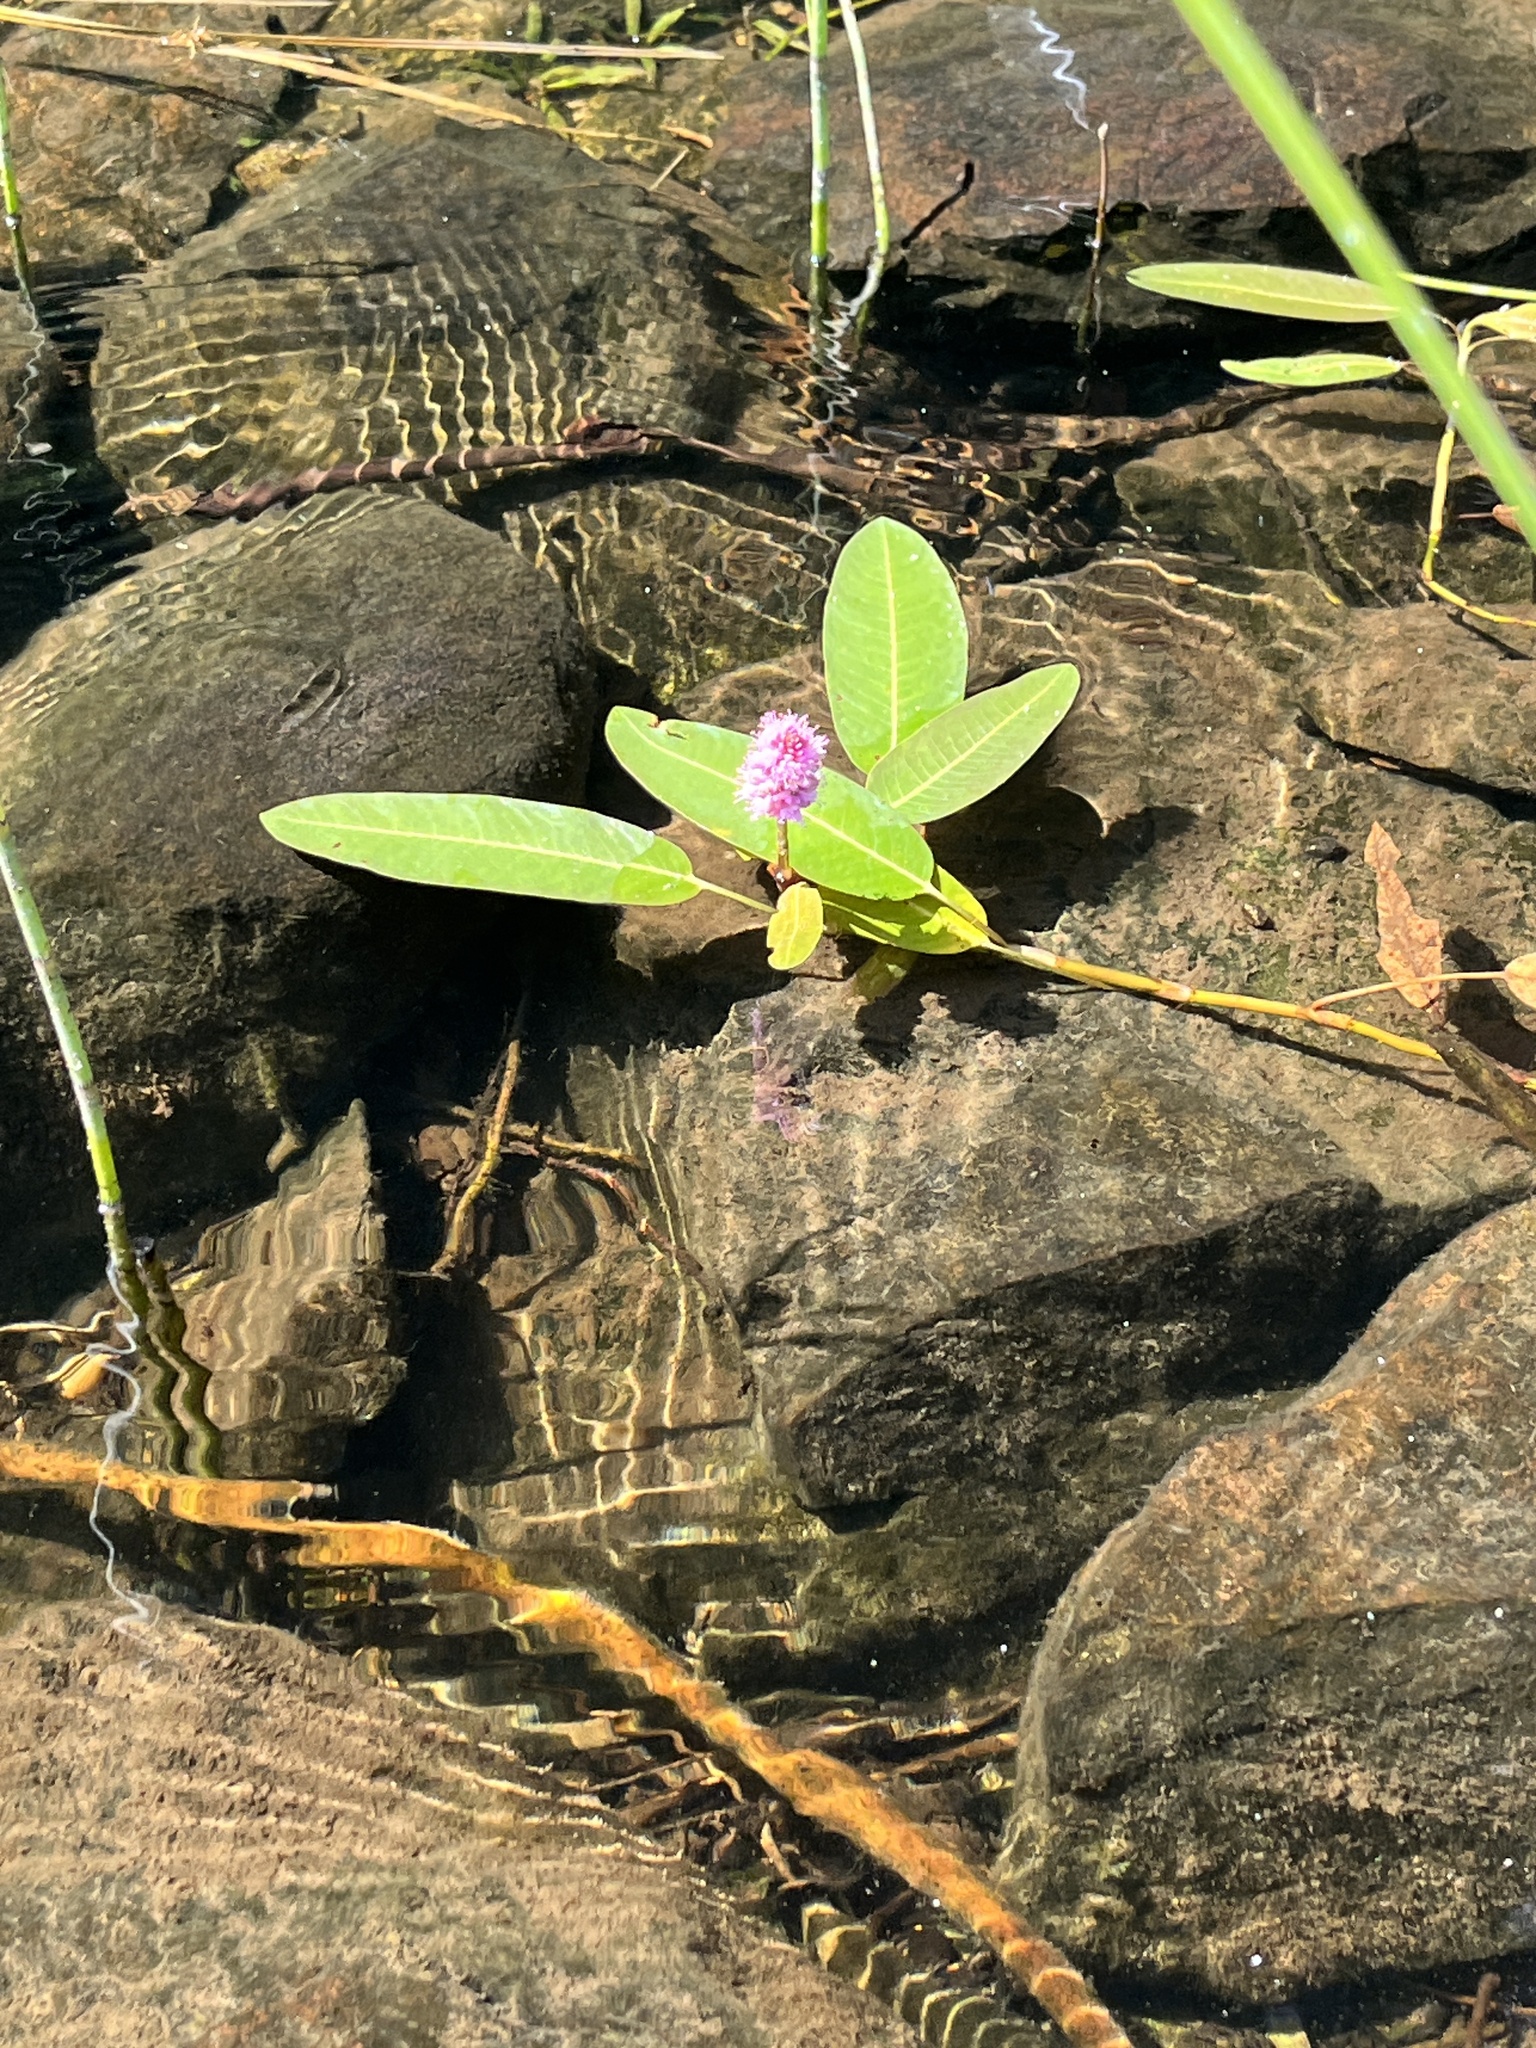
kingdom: Plantae
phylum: Tracheophyta
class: Magnoliopsida
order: Caryophyllales
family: Polygonaceae
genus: Persicaria
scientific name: Persicaria amphibia
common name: Amphibious bistort
